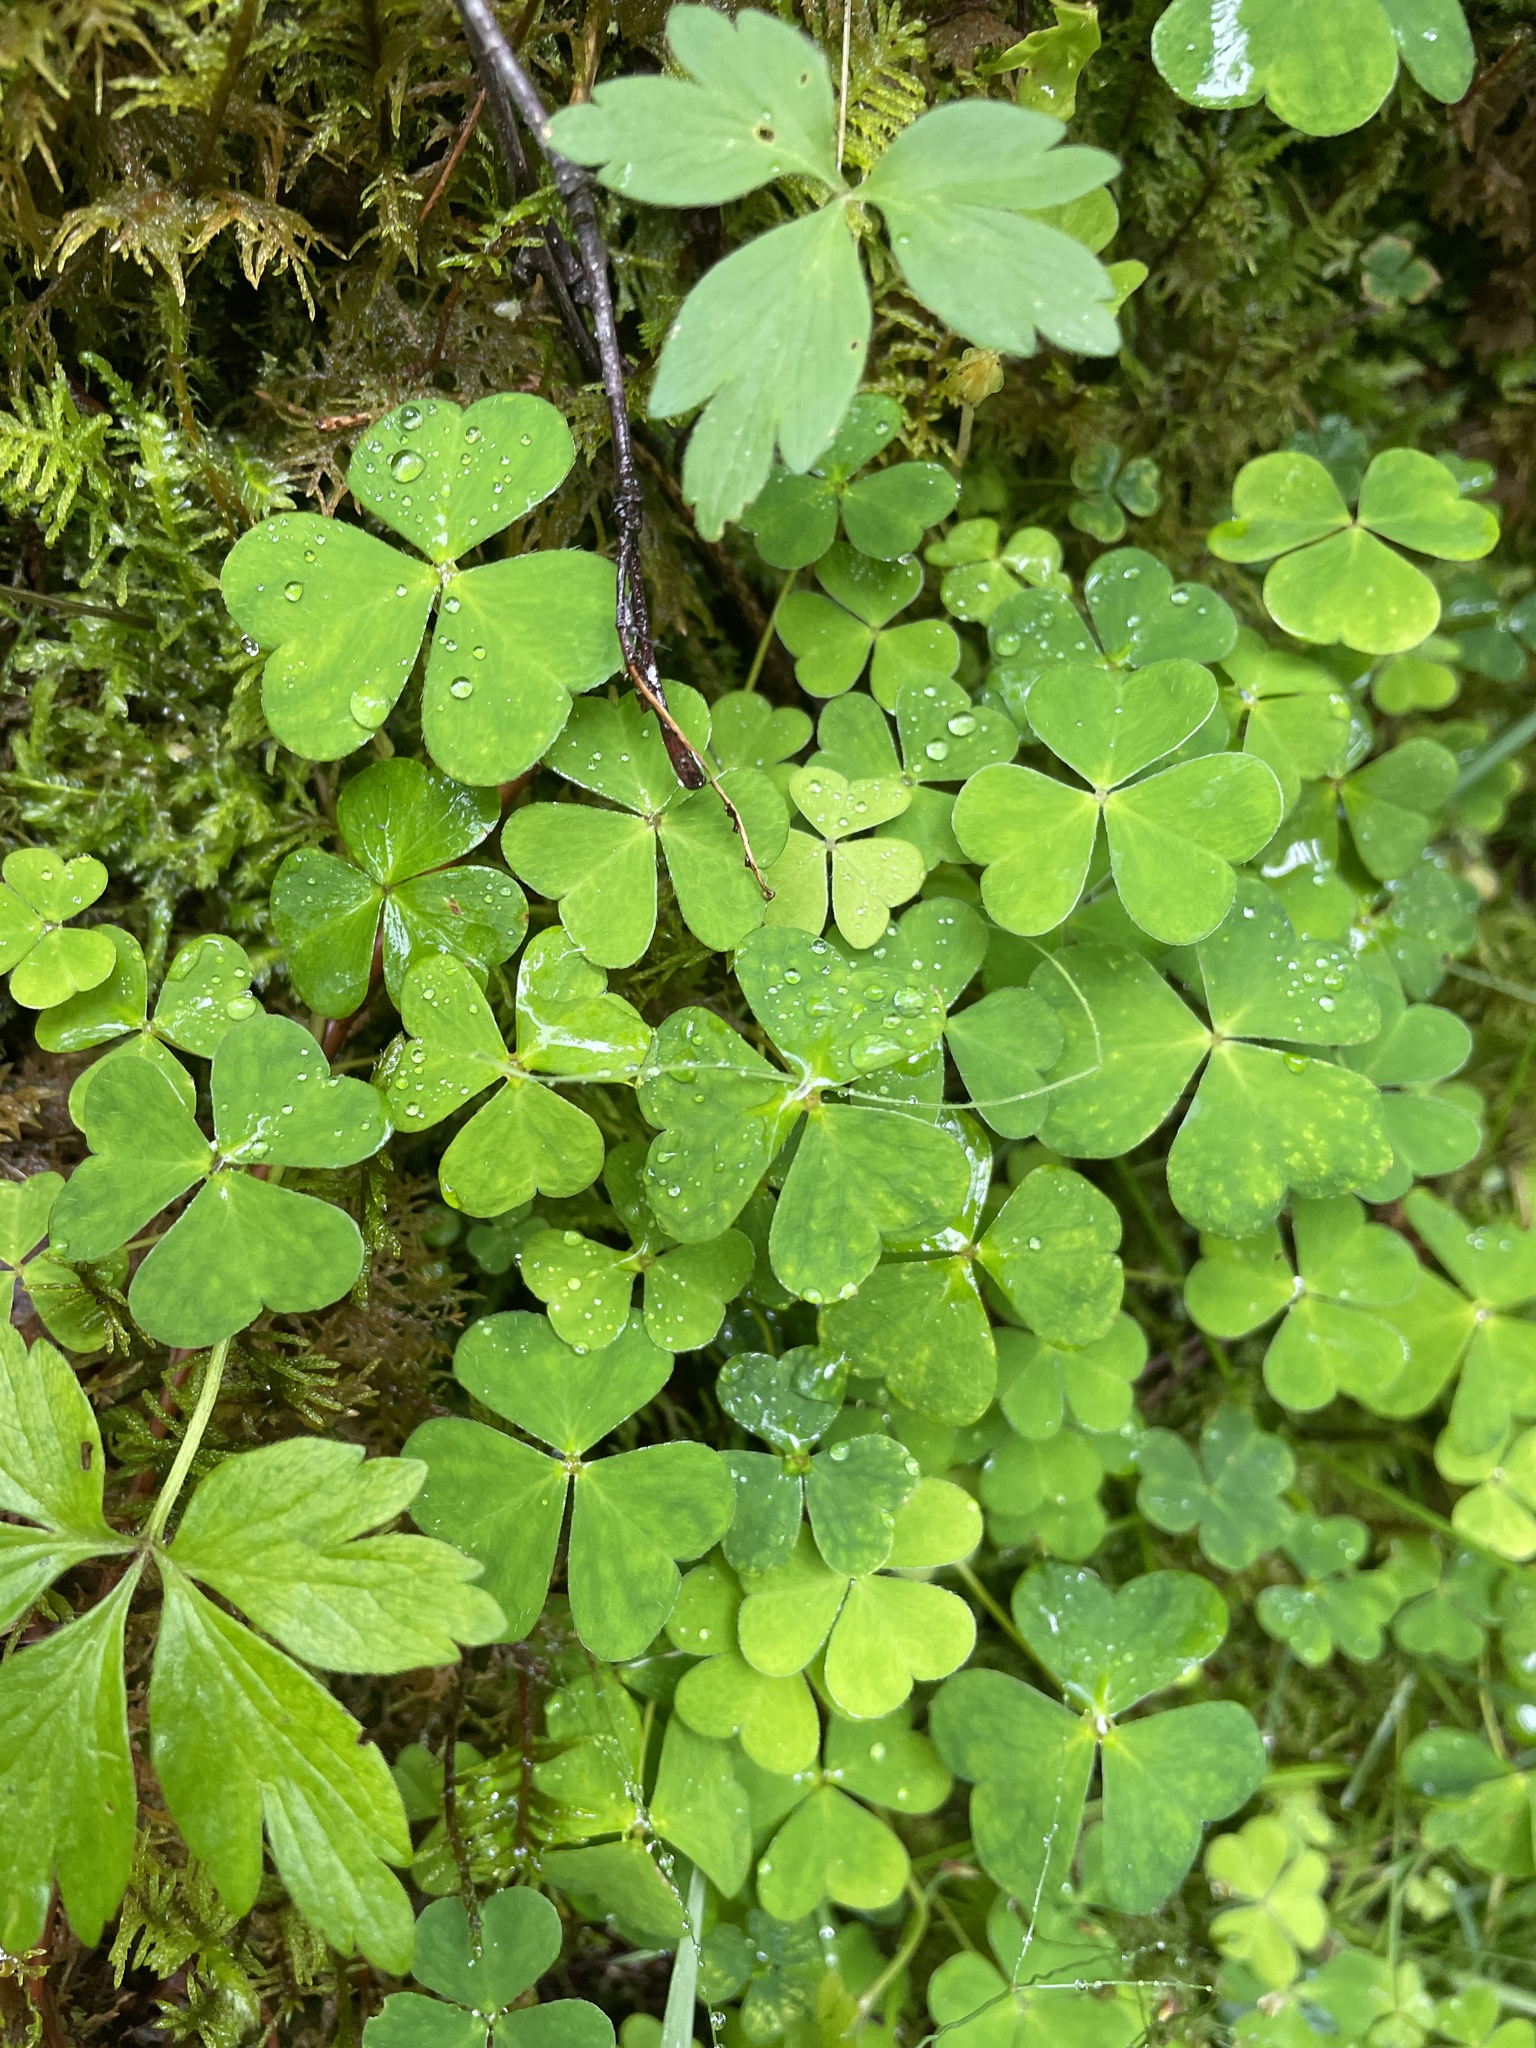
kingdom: Plantae
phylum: Tracheophyta
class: Magnoliopsida
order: Oxalidales
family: Oxalidaceae
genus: Oxalis
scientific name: Oxalis acetosella
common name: Wood-sorrel
